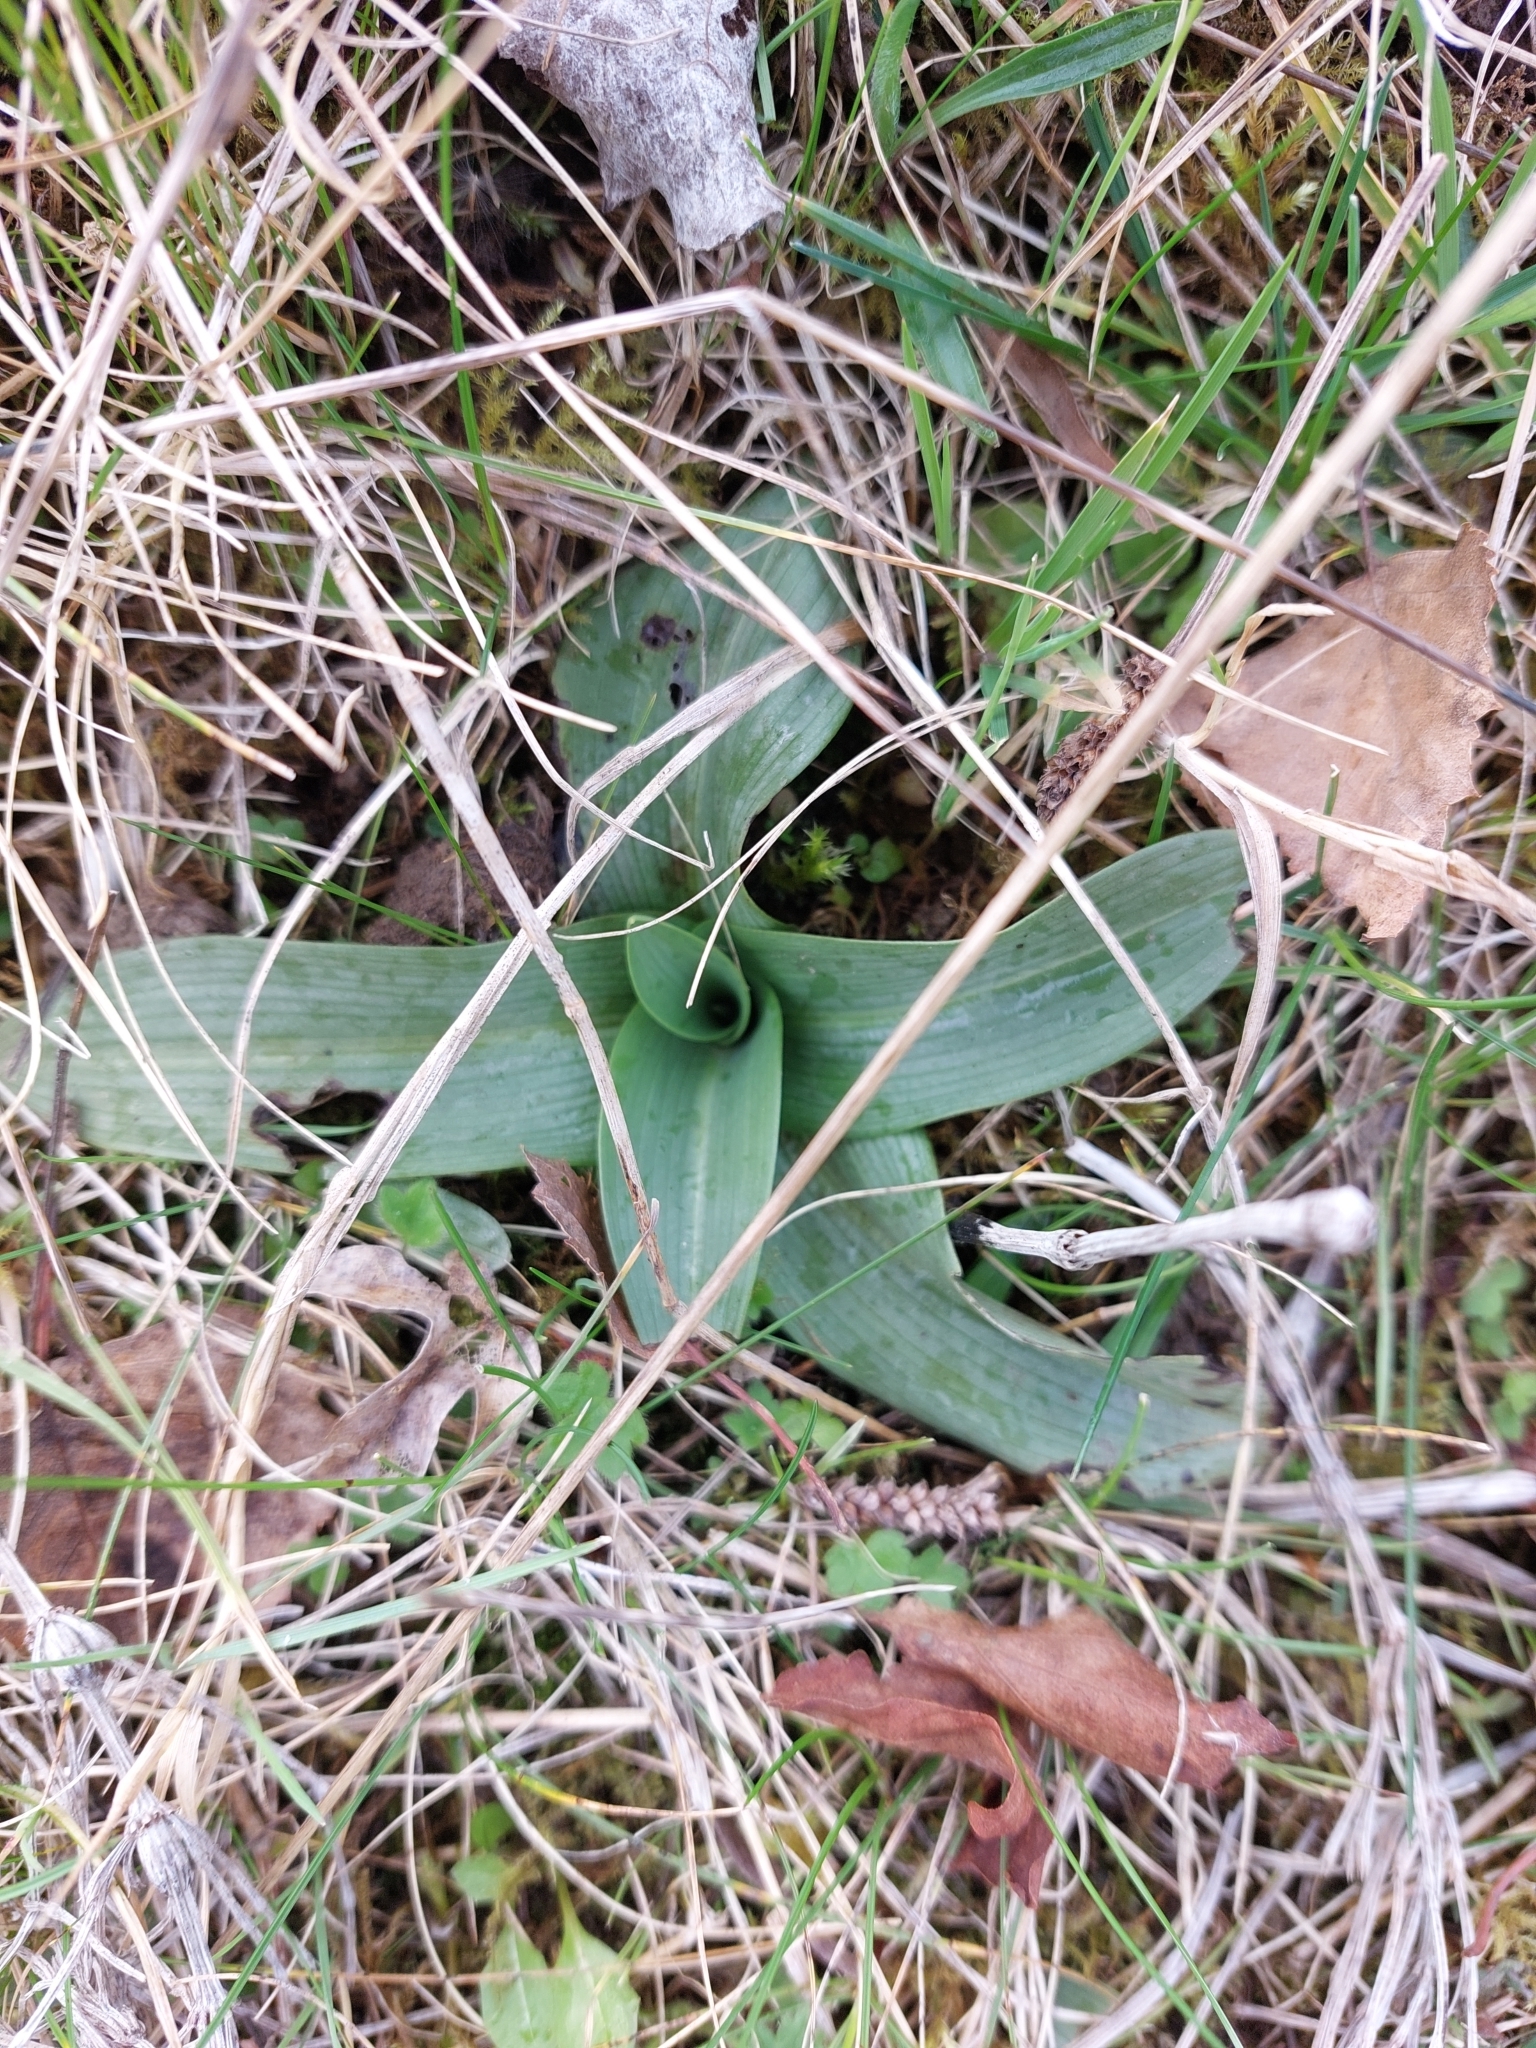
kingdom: Plantae
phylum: Tracheophyta
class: Liliopsida
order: Asparagales
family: Orchidaceae
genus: Ophrys
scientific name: Ophrys apifera
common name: Bee orchid
